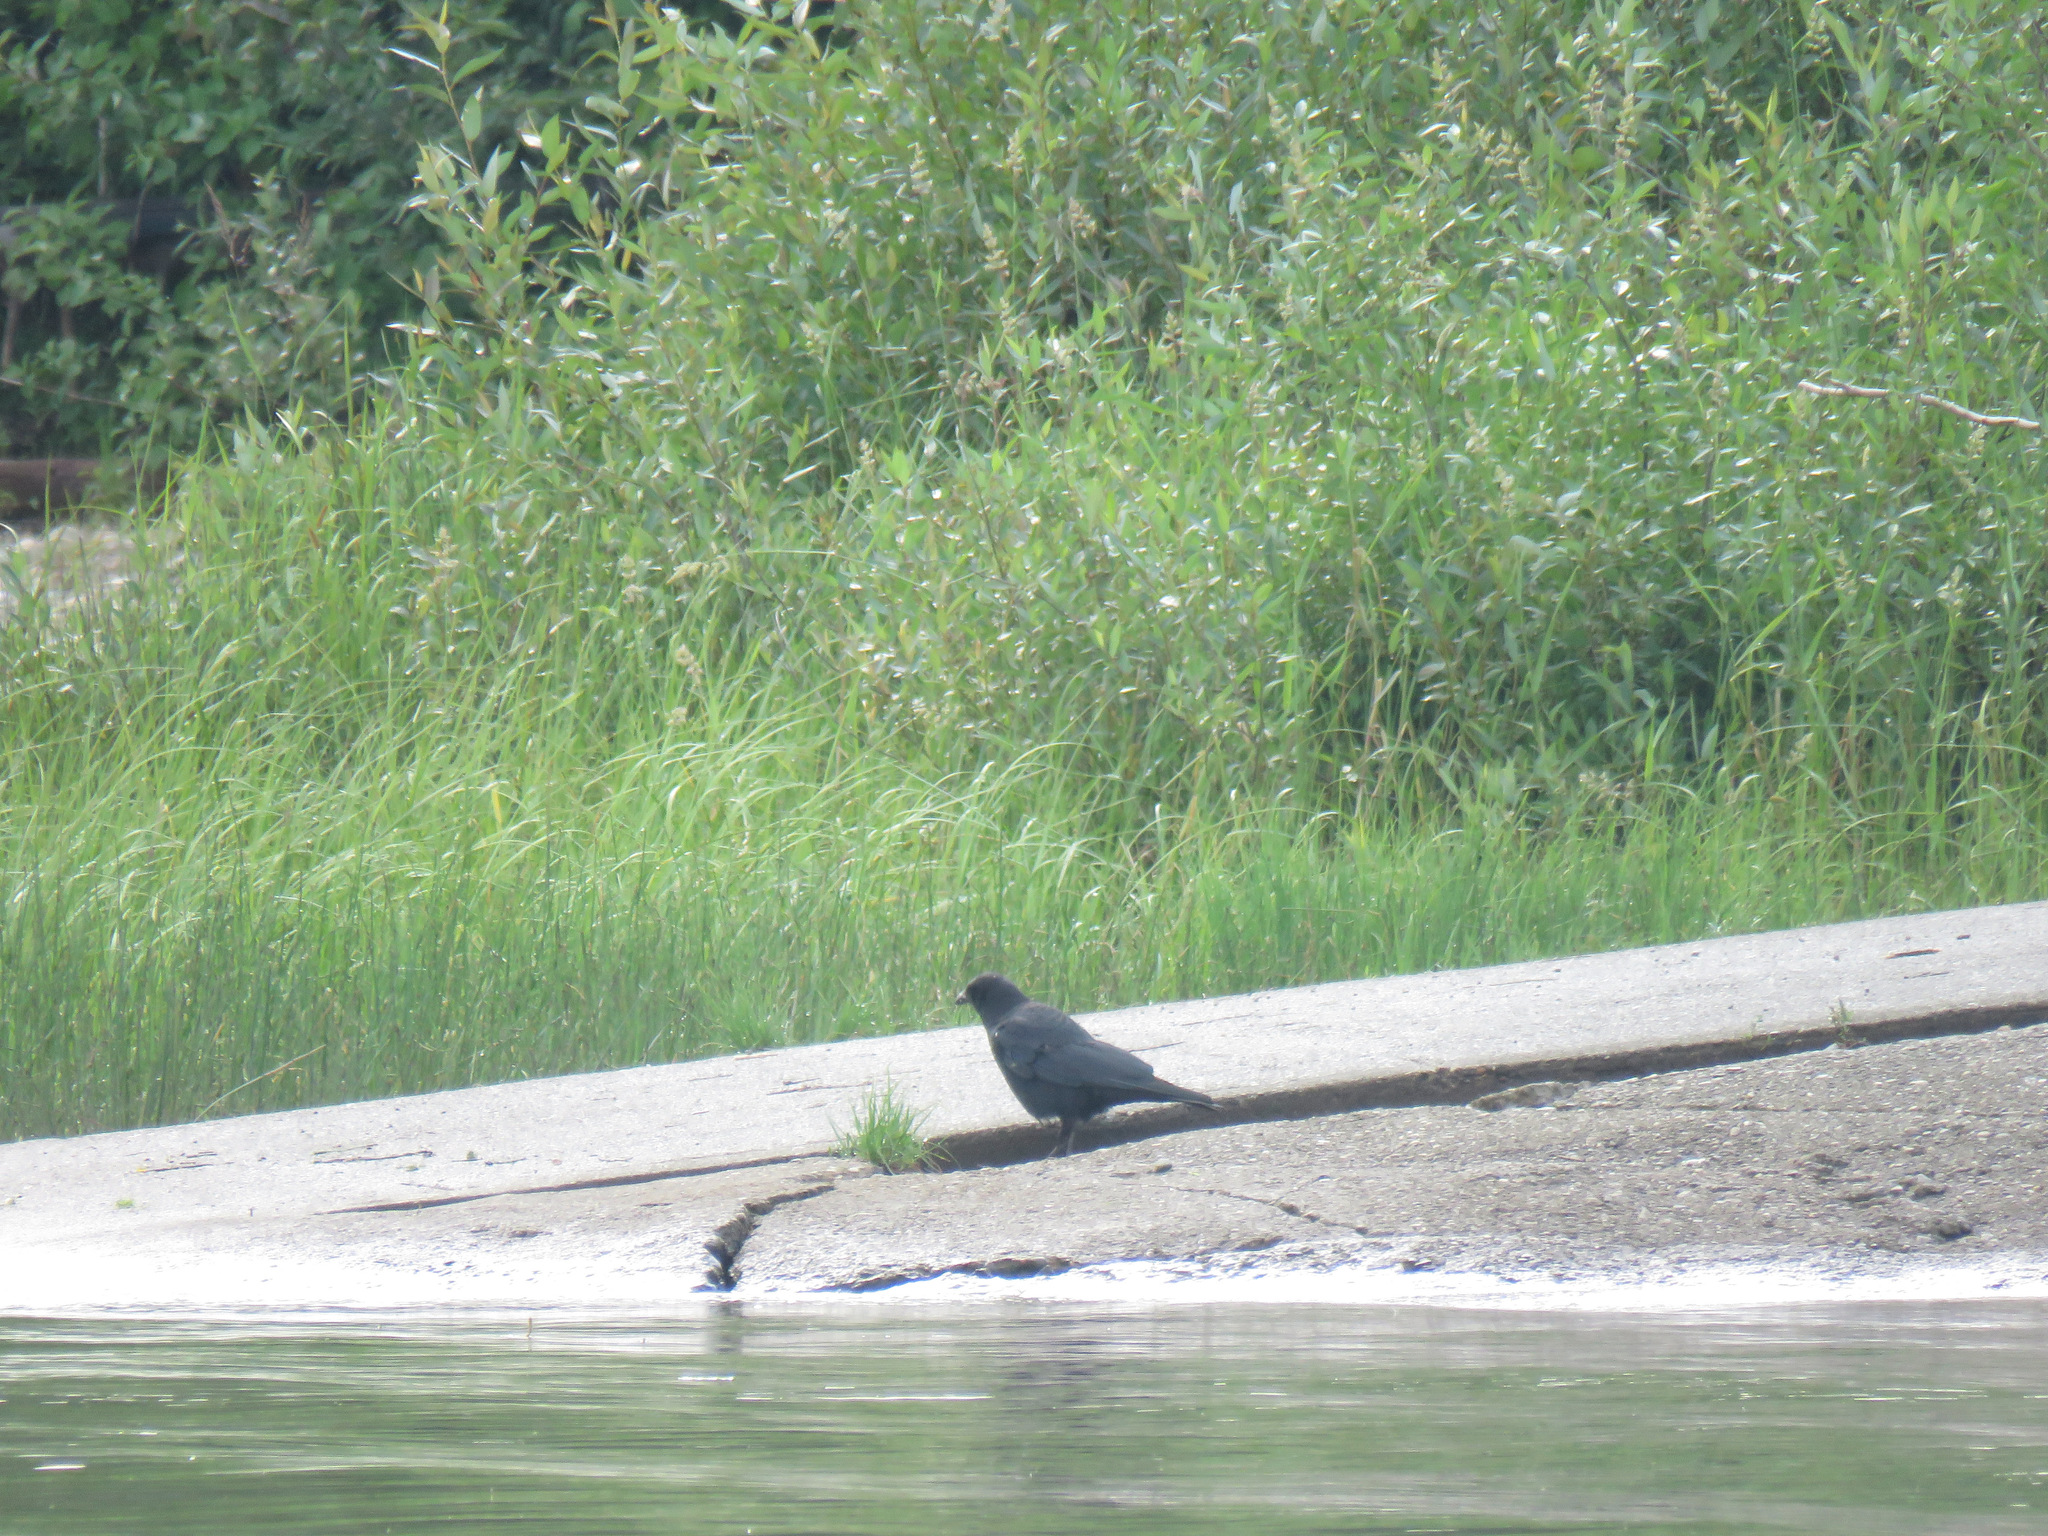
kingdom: Animalia
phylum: Chordata
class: Aves
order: Passeriformes
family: Corvidae
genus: Corvus
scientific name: Corvus corax
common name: Common raven
